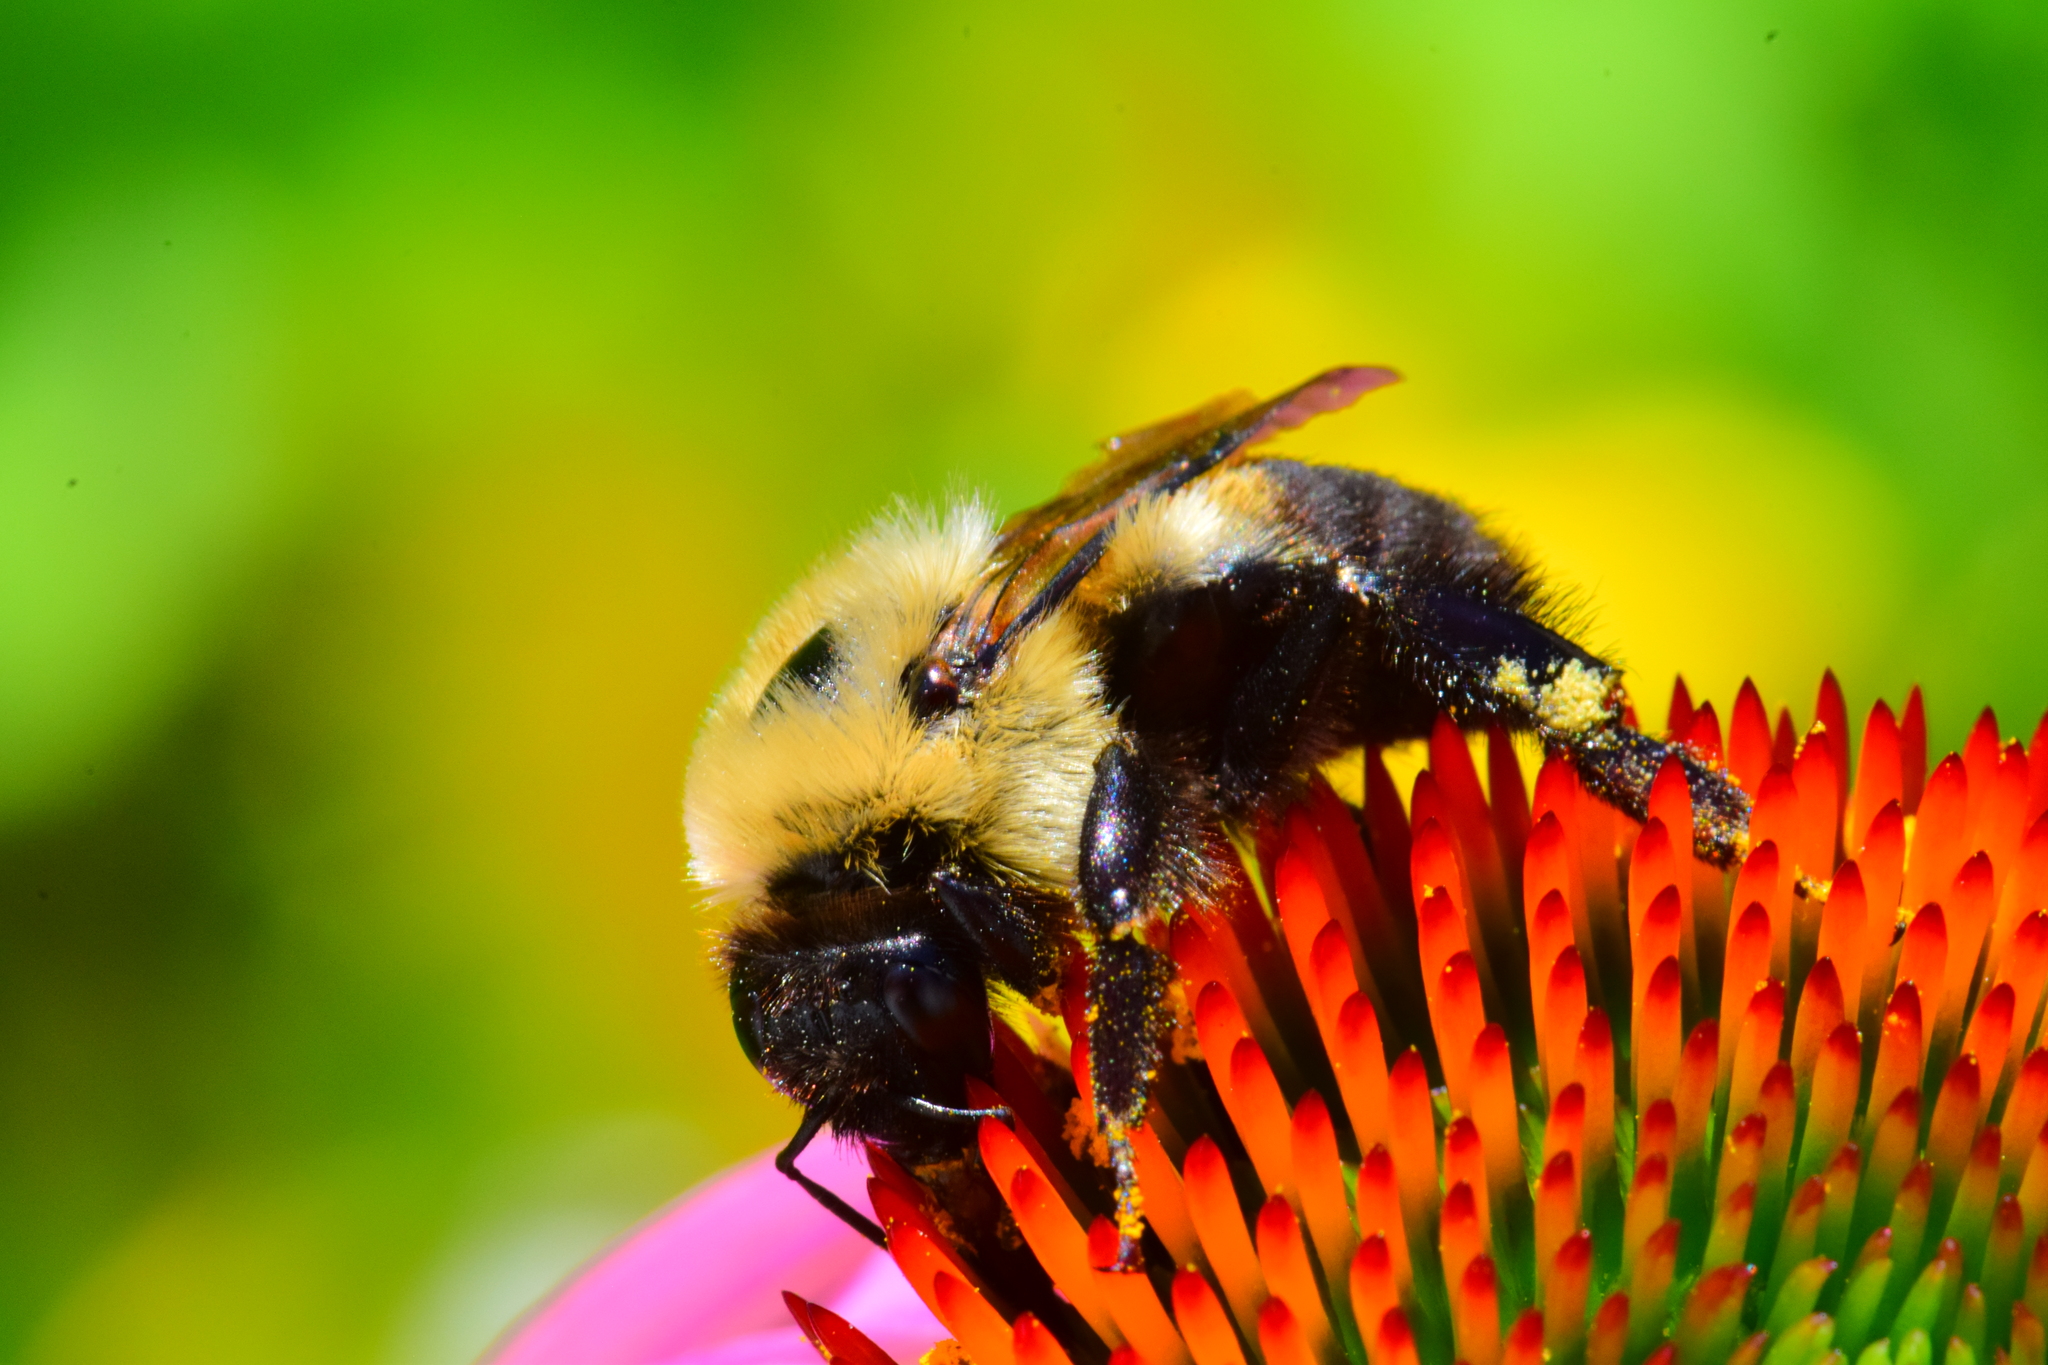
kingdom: Animalia
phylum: Arthropoda
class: Insecta
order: Hymenoptera
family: Apidae
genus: Bombus
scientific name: Bombus griseocollis
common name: Brown-belted bumble bee
